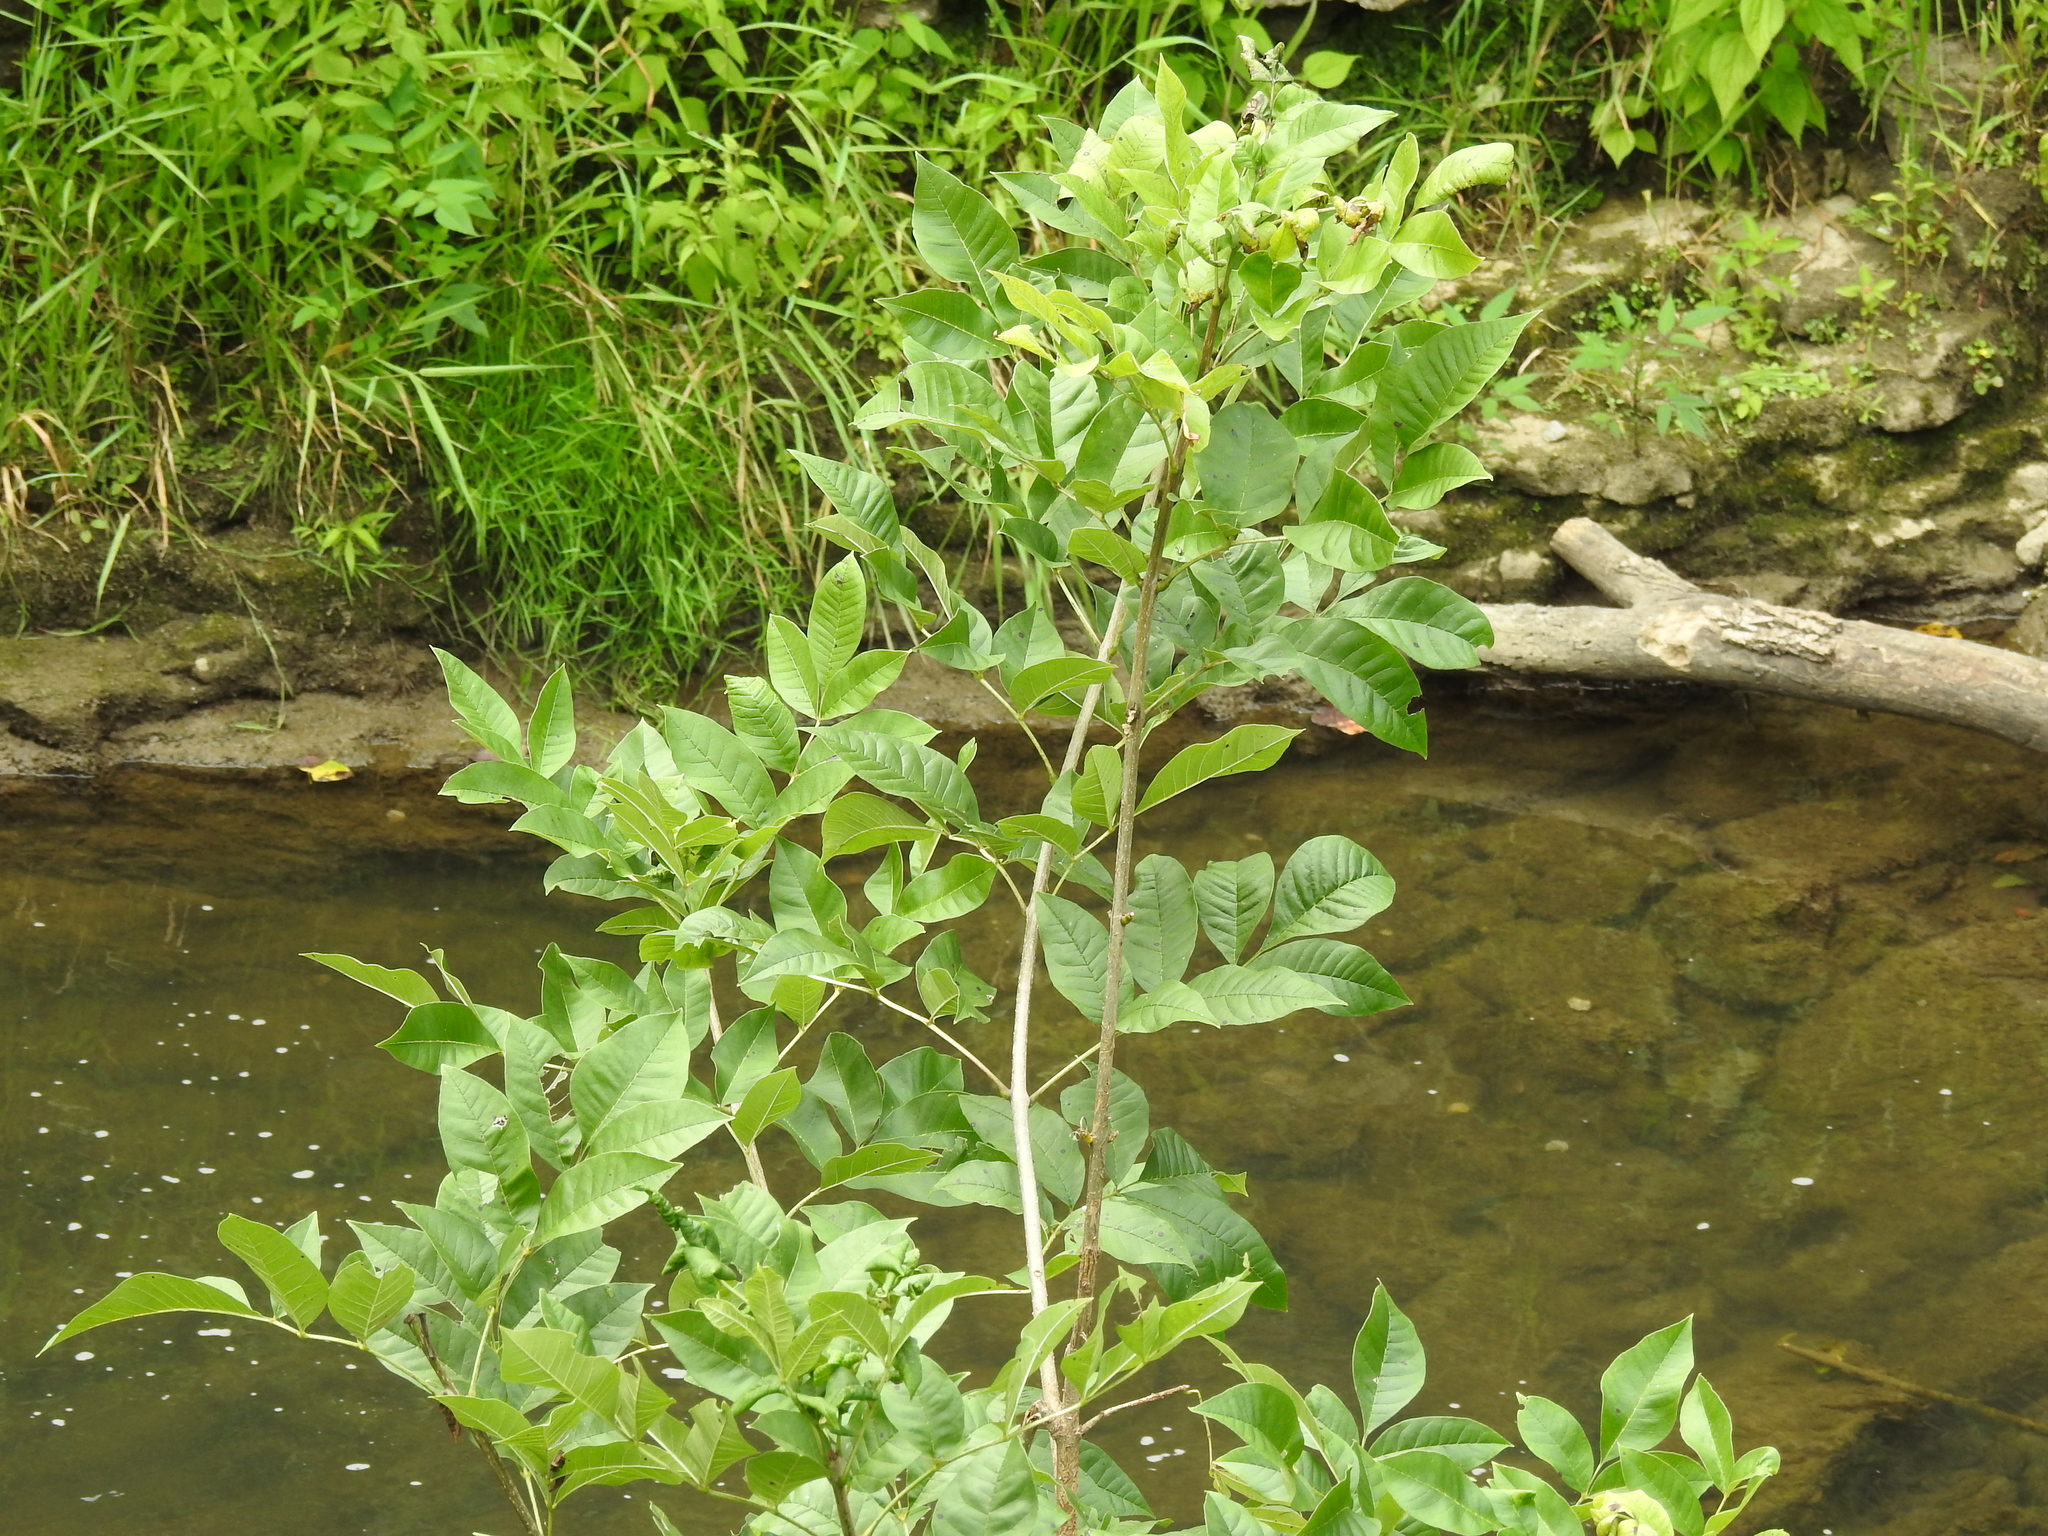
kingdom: Plantae
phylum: Tracheophyta
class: Magnoliopsida
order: Lamiales
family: Oleaceae
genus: Fraxinus
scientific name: Fraxinus pennsylvanica
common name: Green ash
